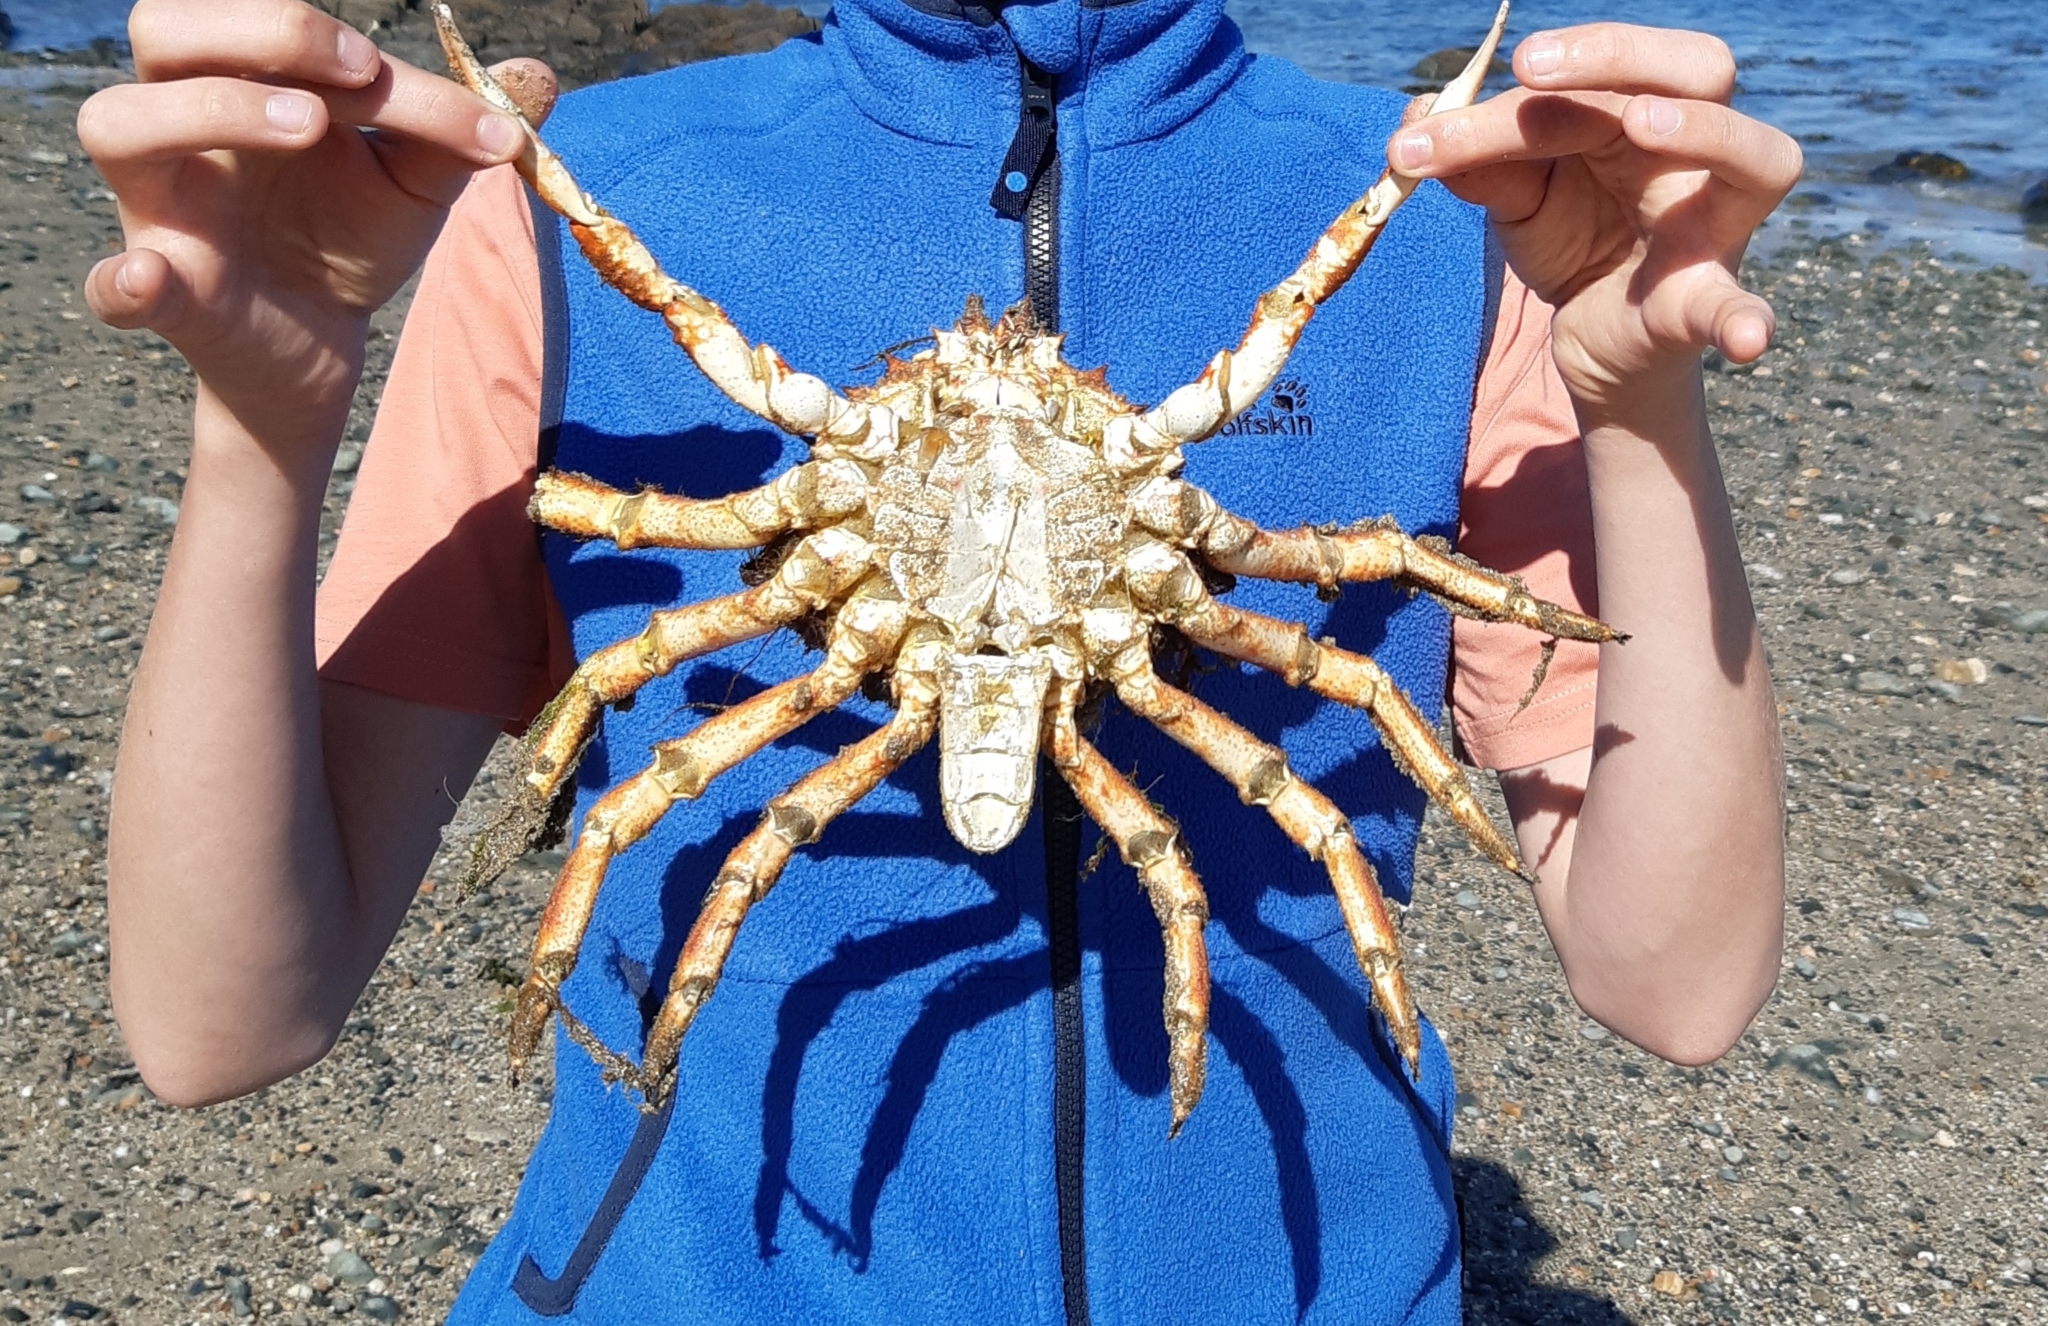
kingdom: Animalia
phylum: Arthropoda
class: Malacostraca
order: Decapoda
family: Majidae
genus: Maja
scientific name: Maja brachydactyla
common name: Common spider crab
